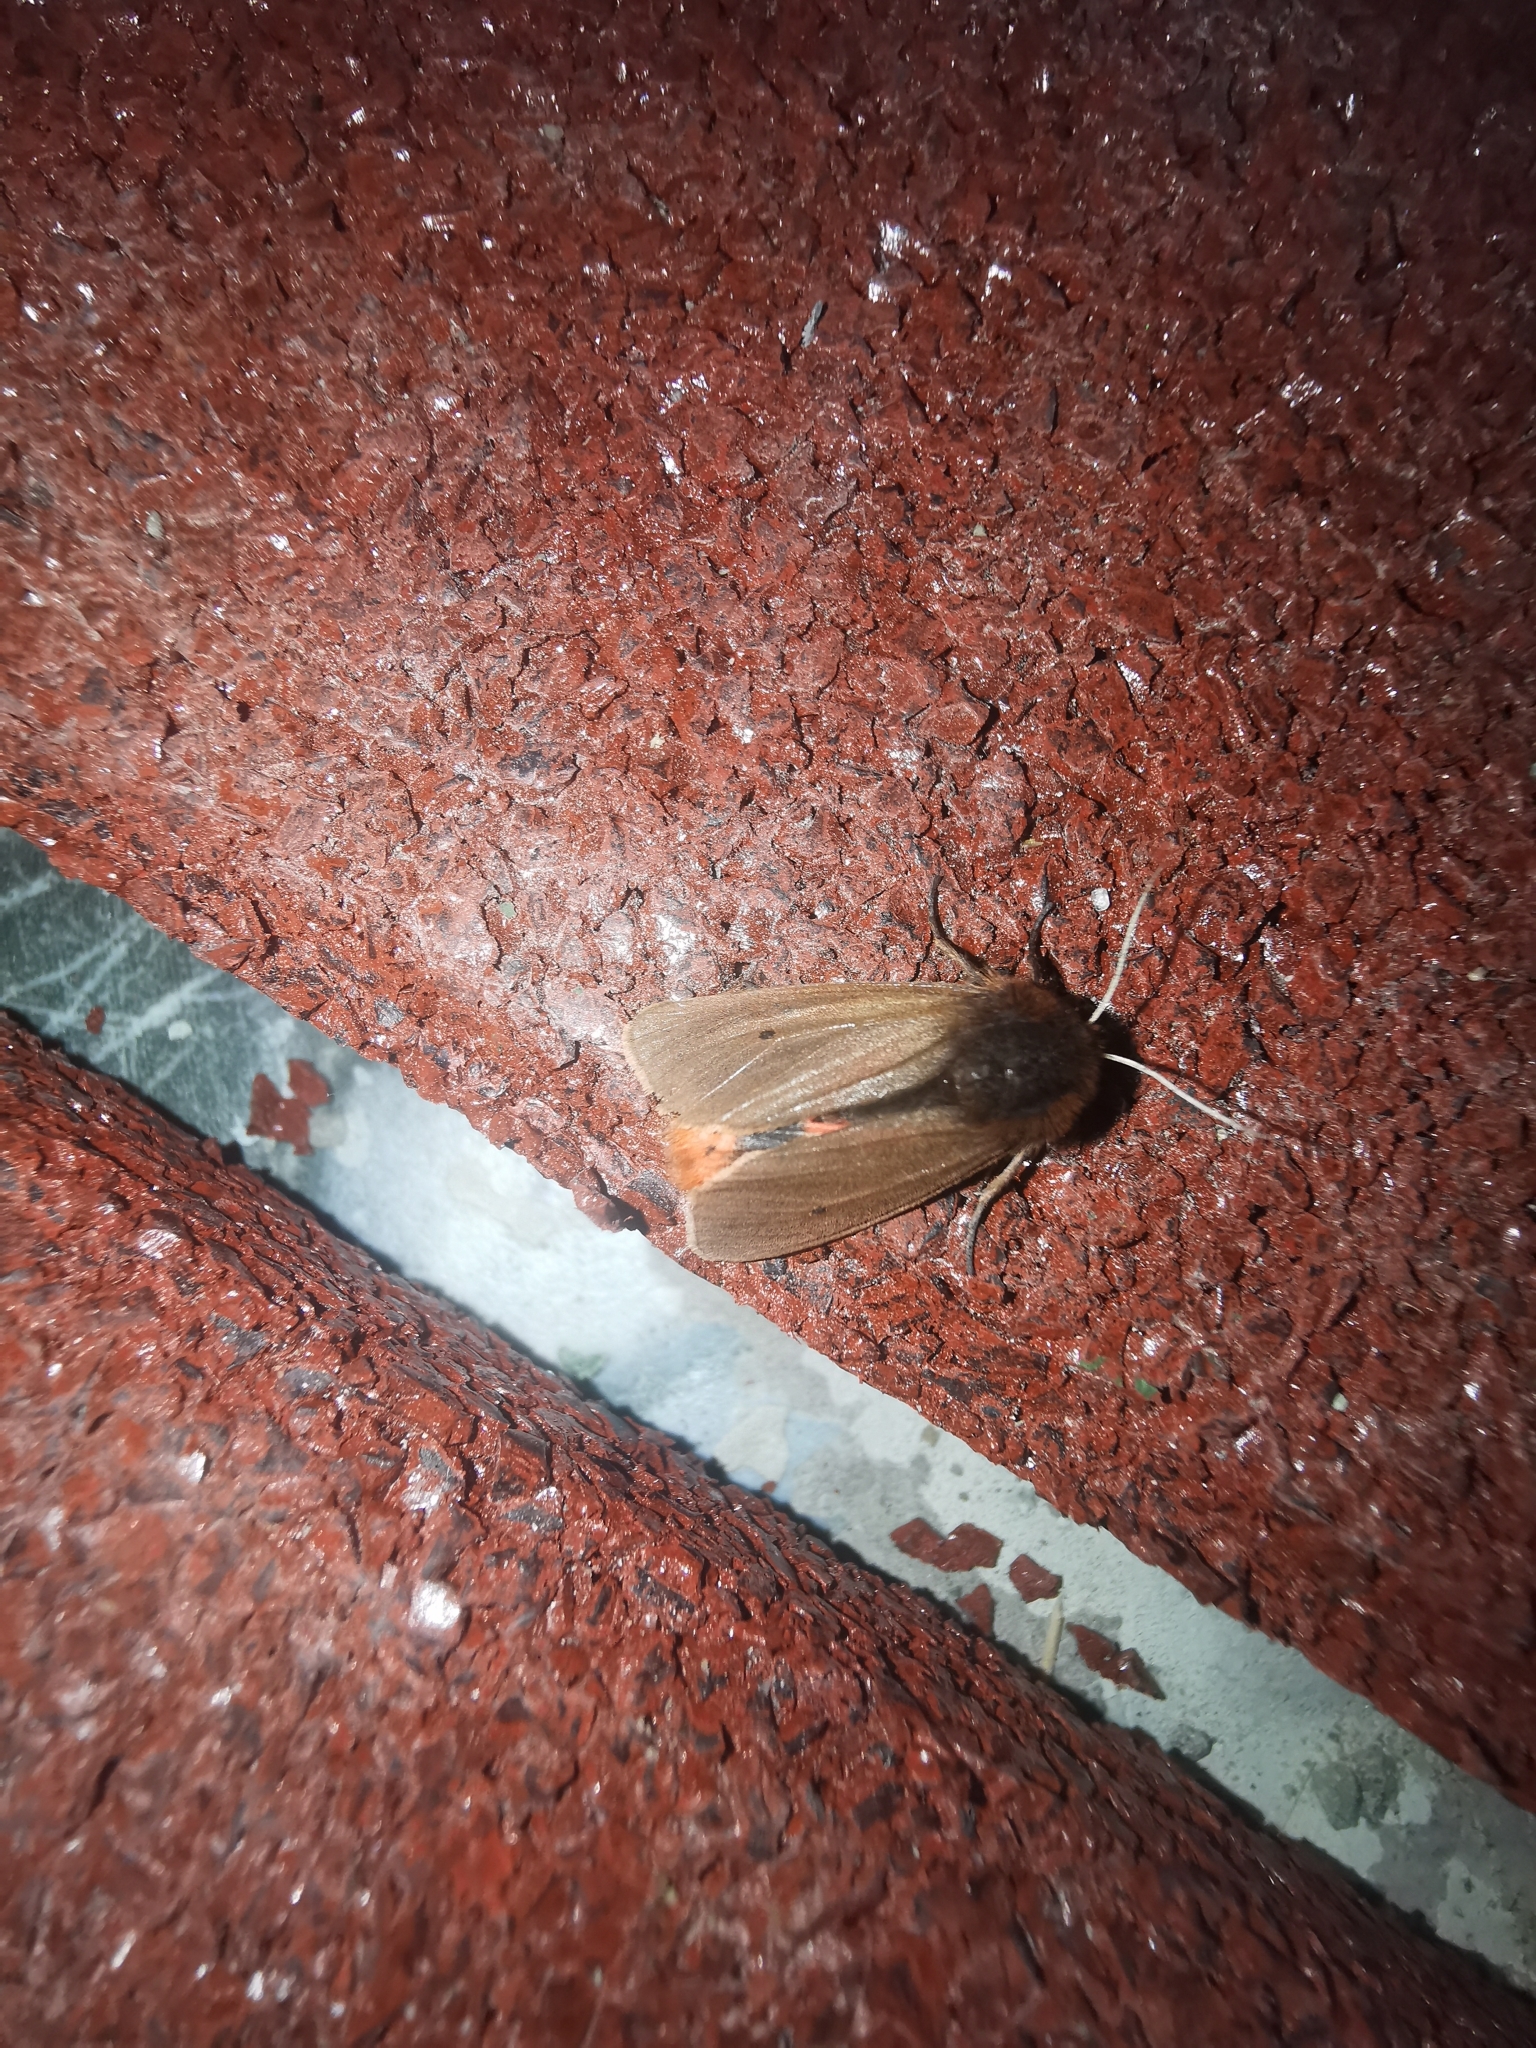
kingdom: Animalia
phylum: Arthropoda
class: Insecta
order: Lepidoptera
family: Erebidae
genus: Phragmatobia
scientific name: Phragmatobia fuliginosa
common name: Ruby tiger
